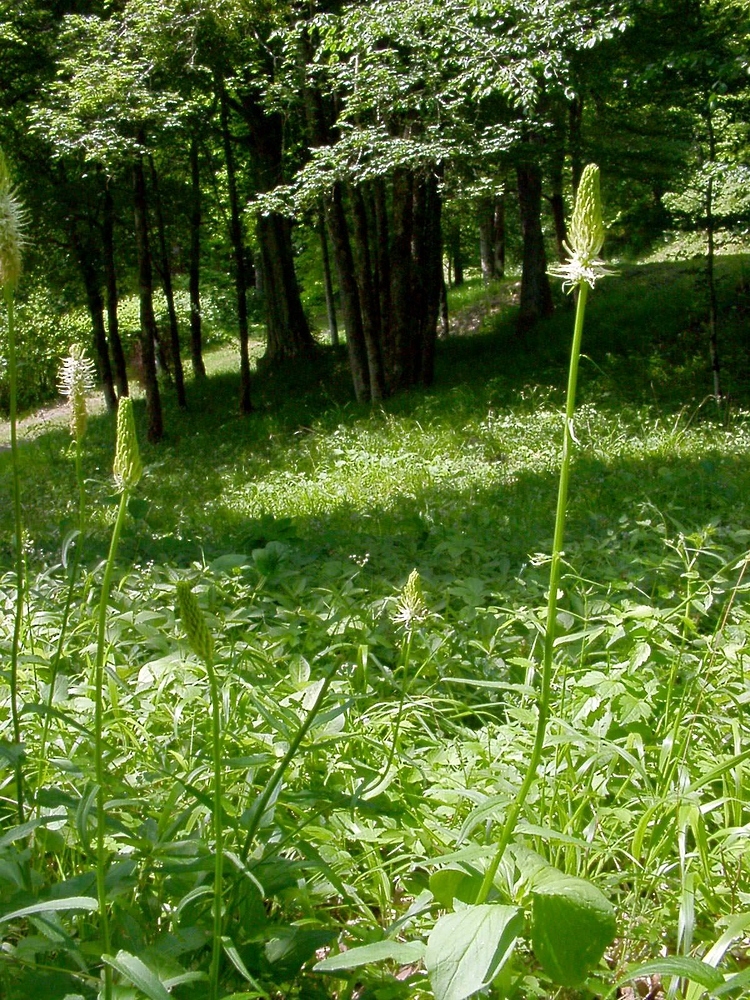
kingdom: Plantae
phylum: Tracheophyta
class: Magnoliopsida
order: Asterales
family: Campanulaceae
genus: Phyteuma
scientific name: Phyteuma spicatum
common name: Spiked rampion
